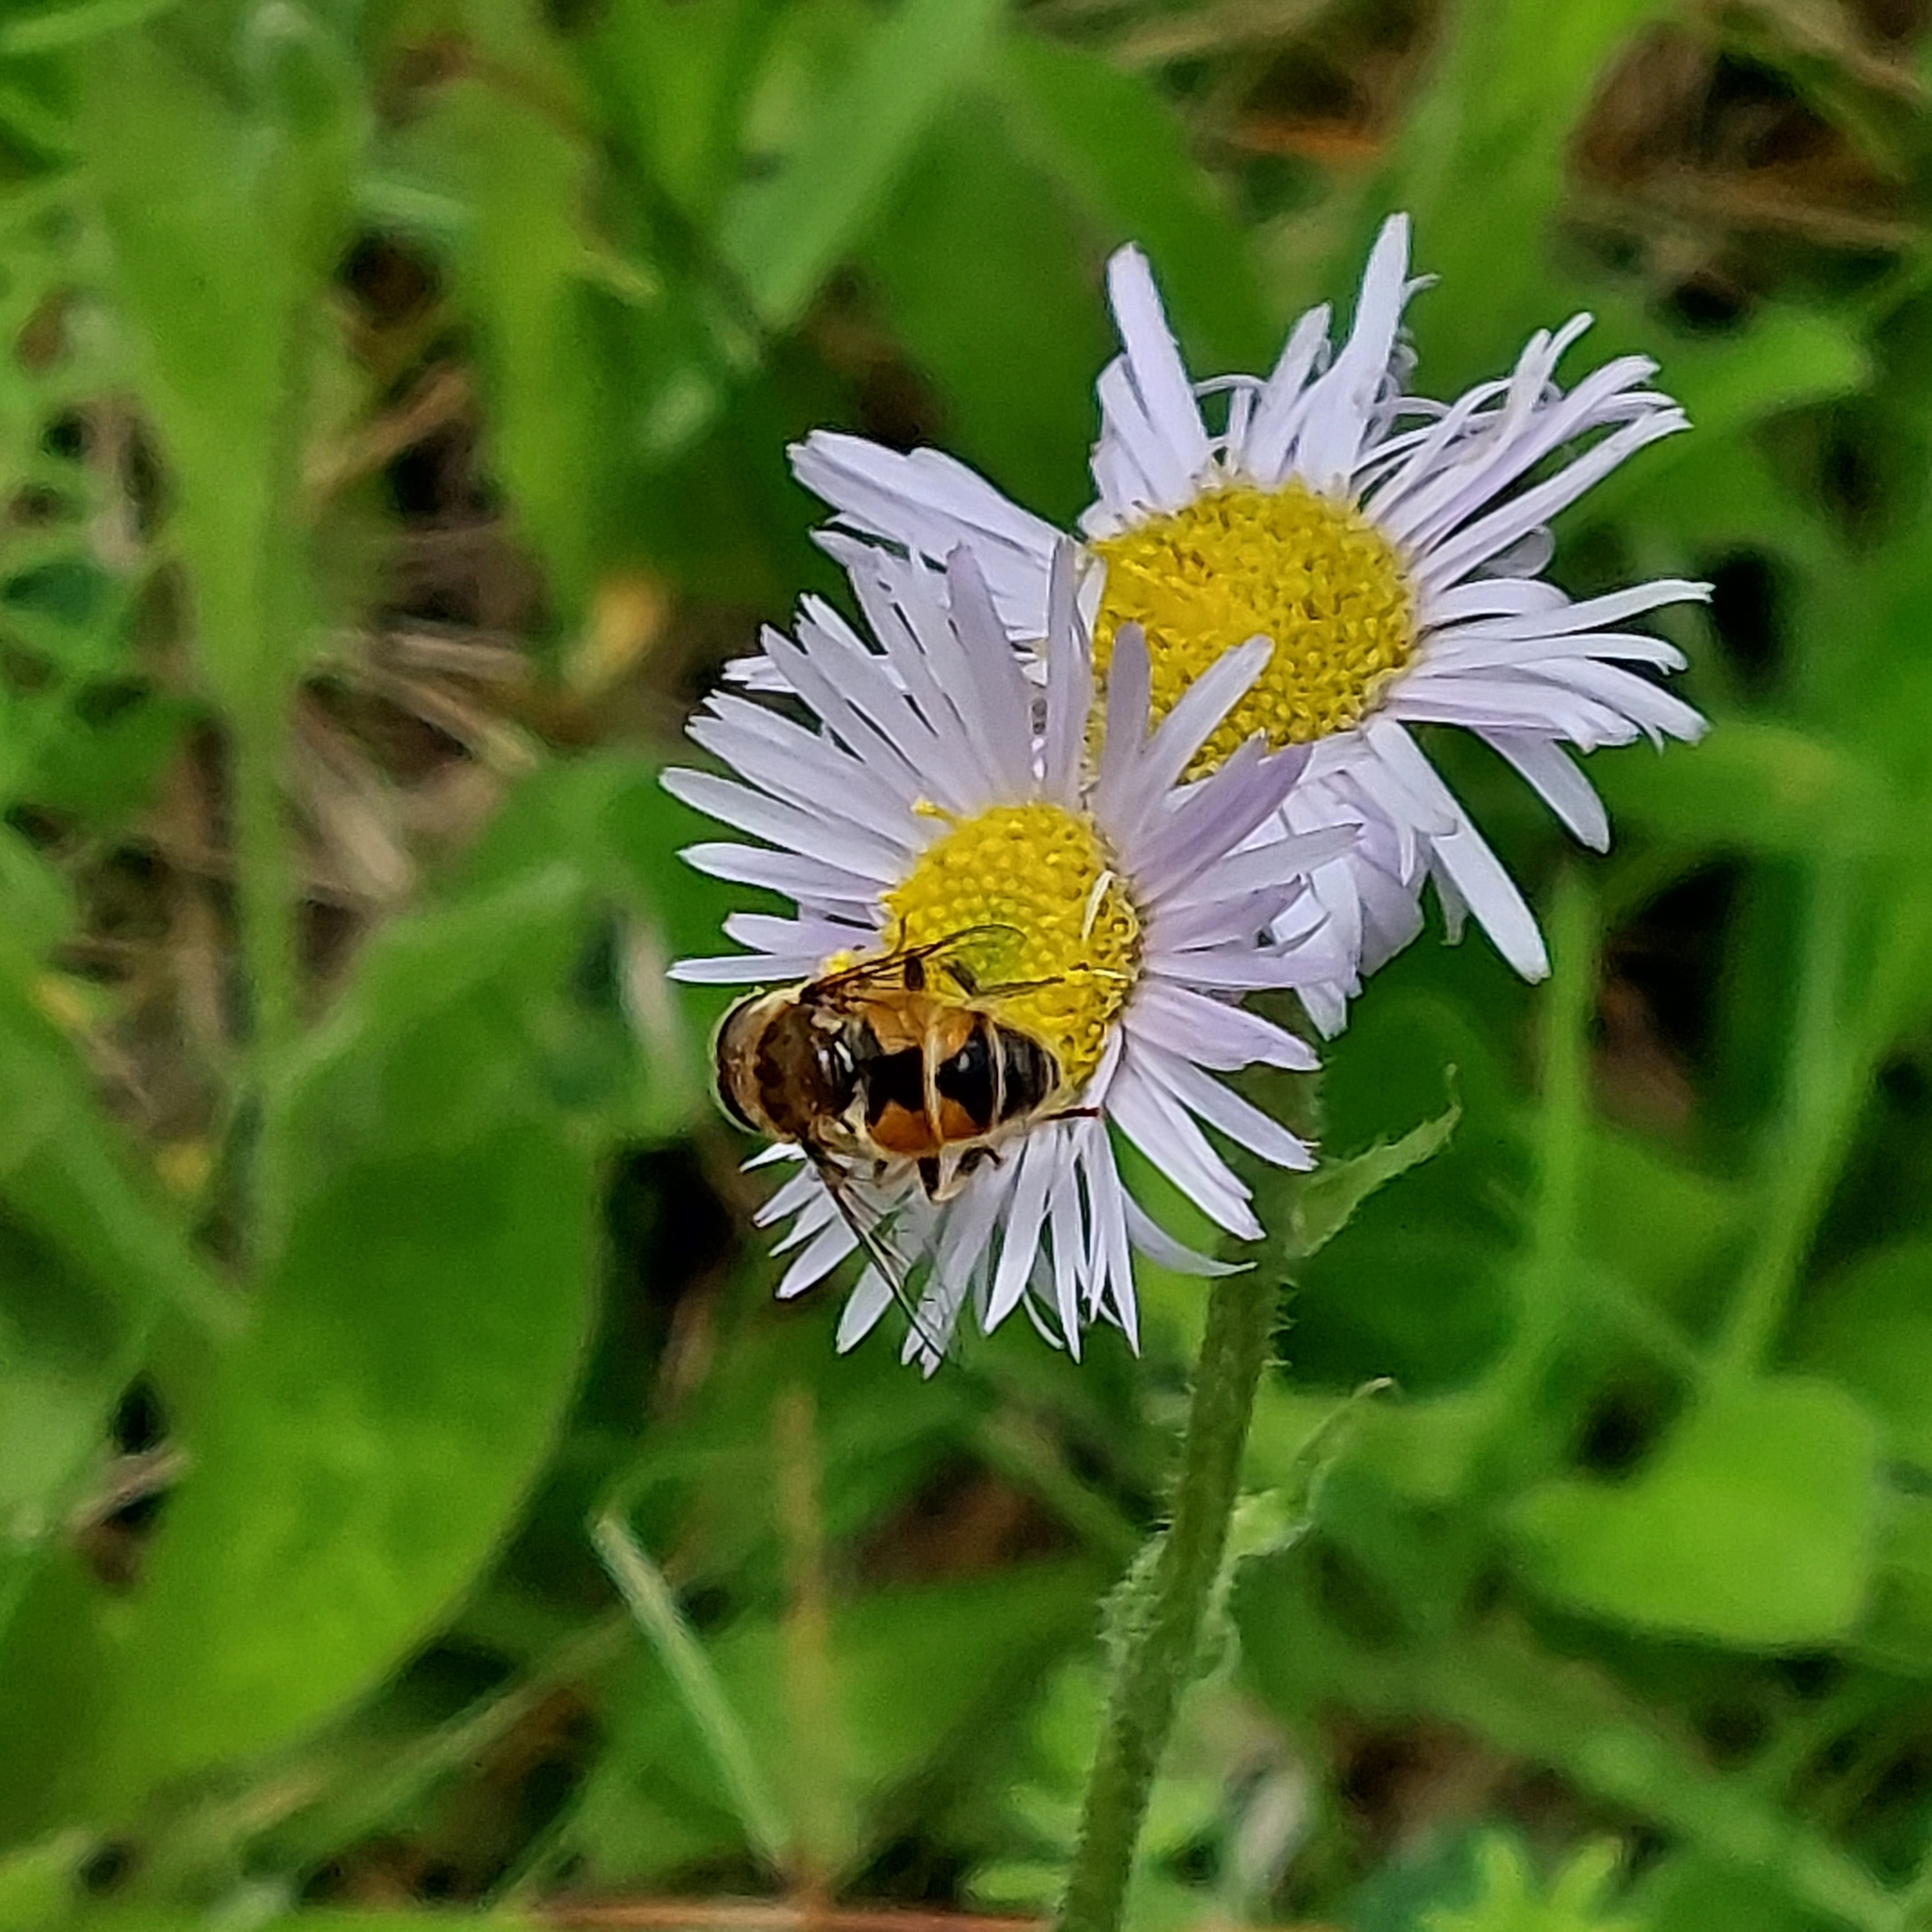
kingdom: Animalia
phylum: Arthropoda
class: Insecta
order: Diptera
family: Syrphidae
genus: Eristalis
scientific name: Eristalis arbustorum
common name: Hover fly
